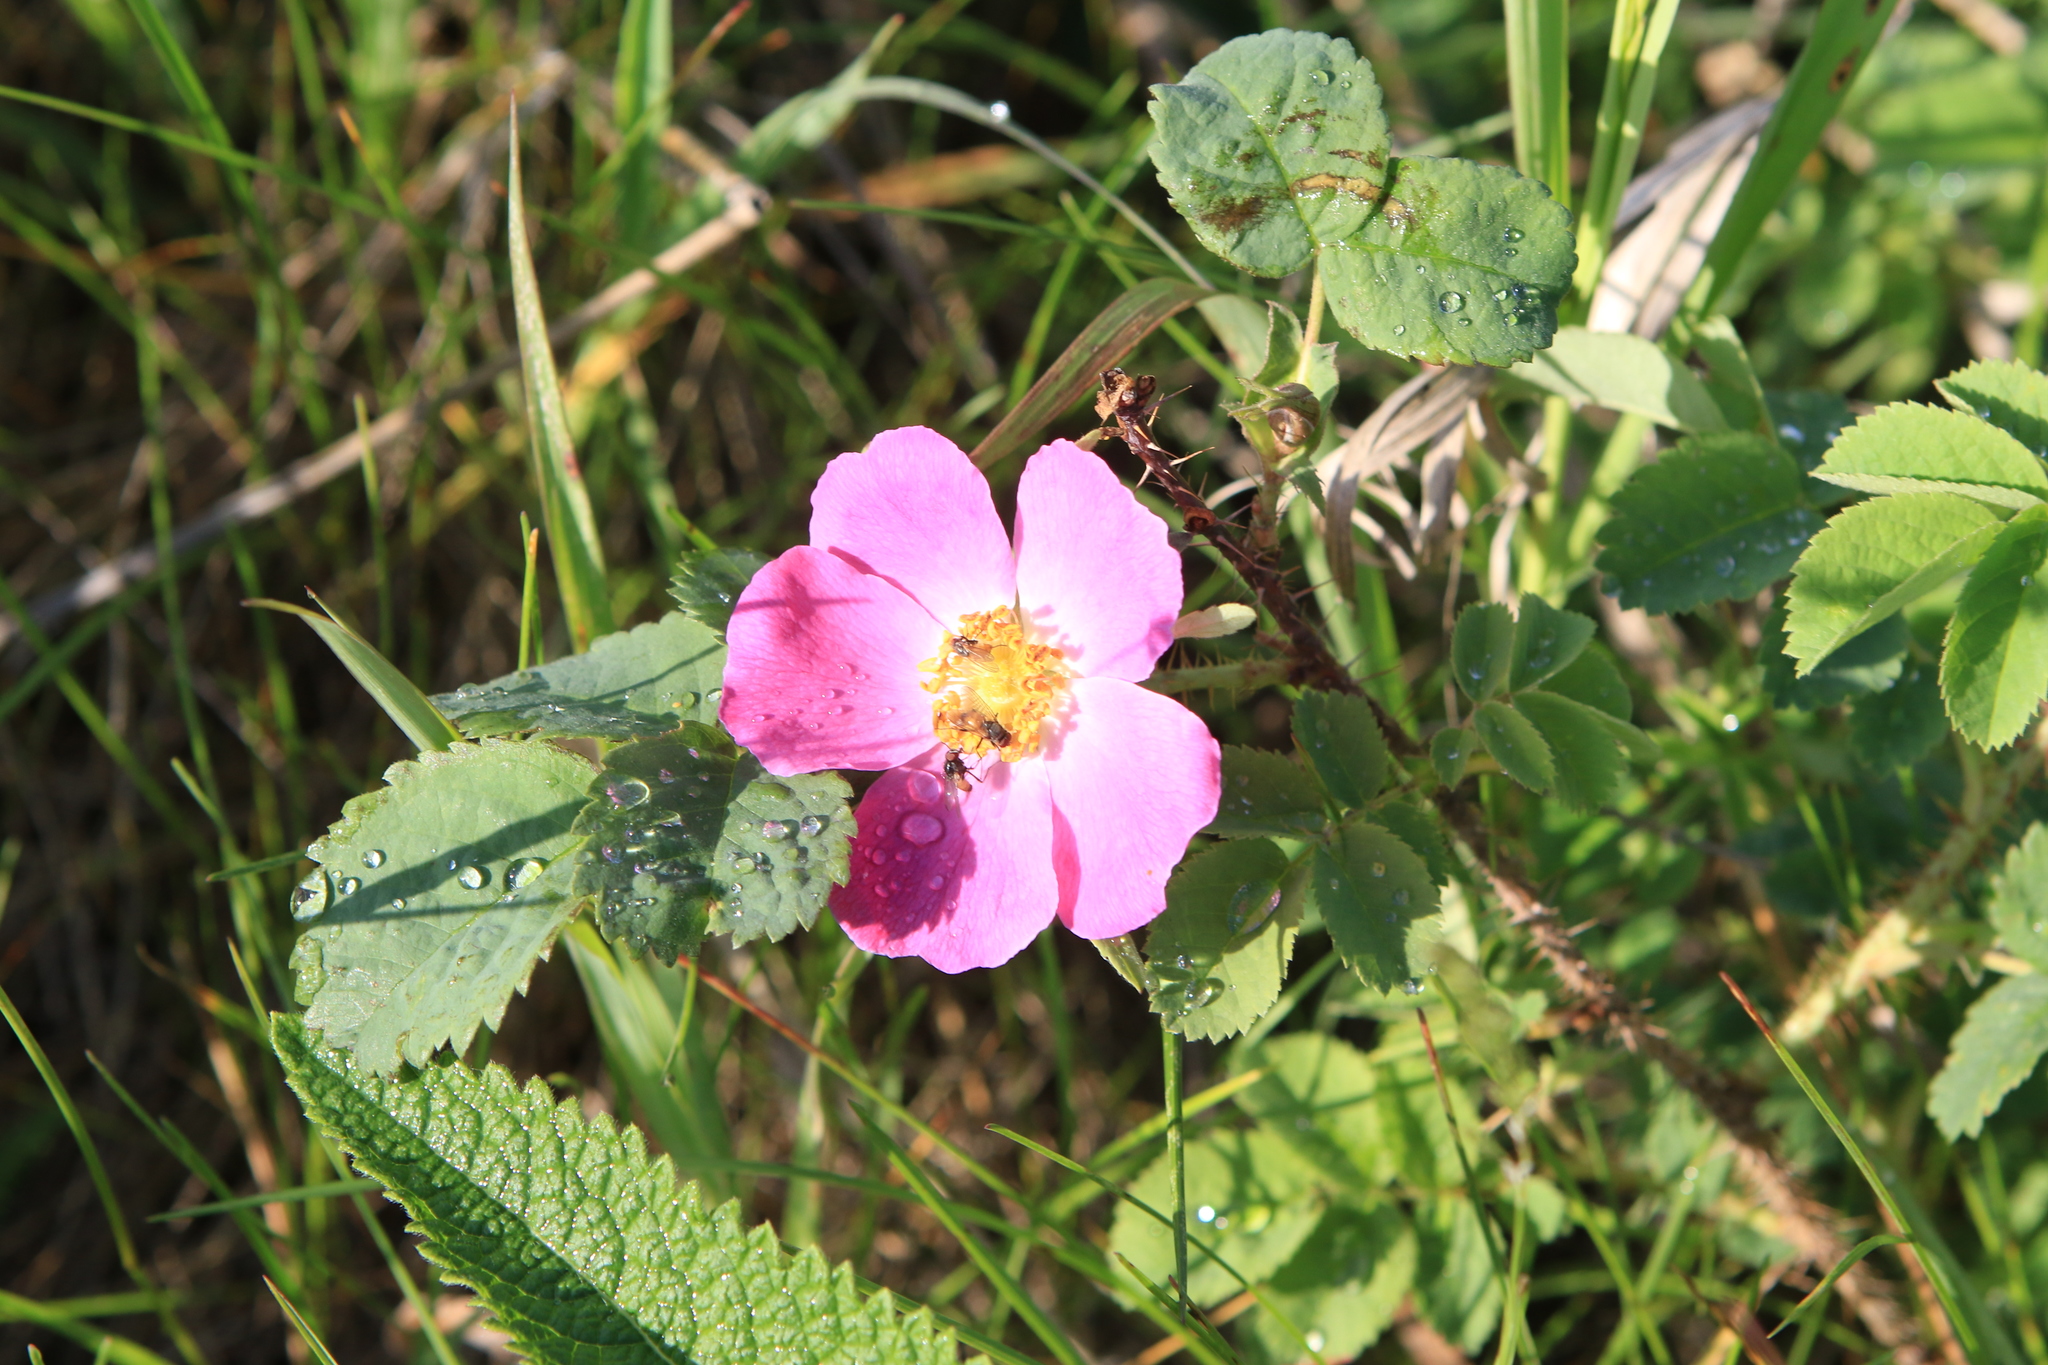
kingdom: Plantae
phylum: Tracheophyta
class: Magnoliopsida
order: Rosales
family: Rosaceae
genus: Rosa
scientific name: Rosa acicularis
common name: Prickly rose
